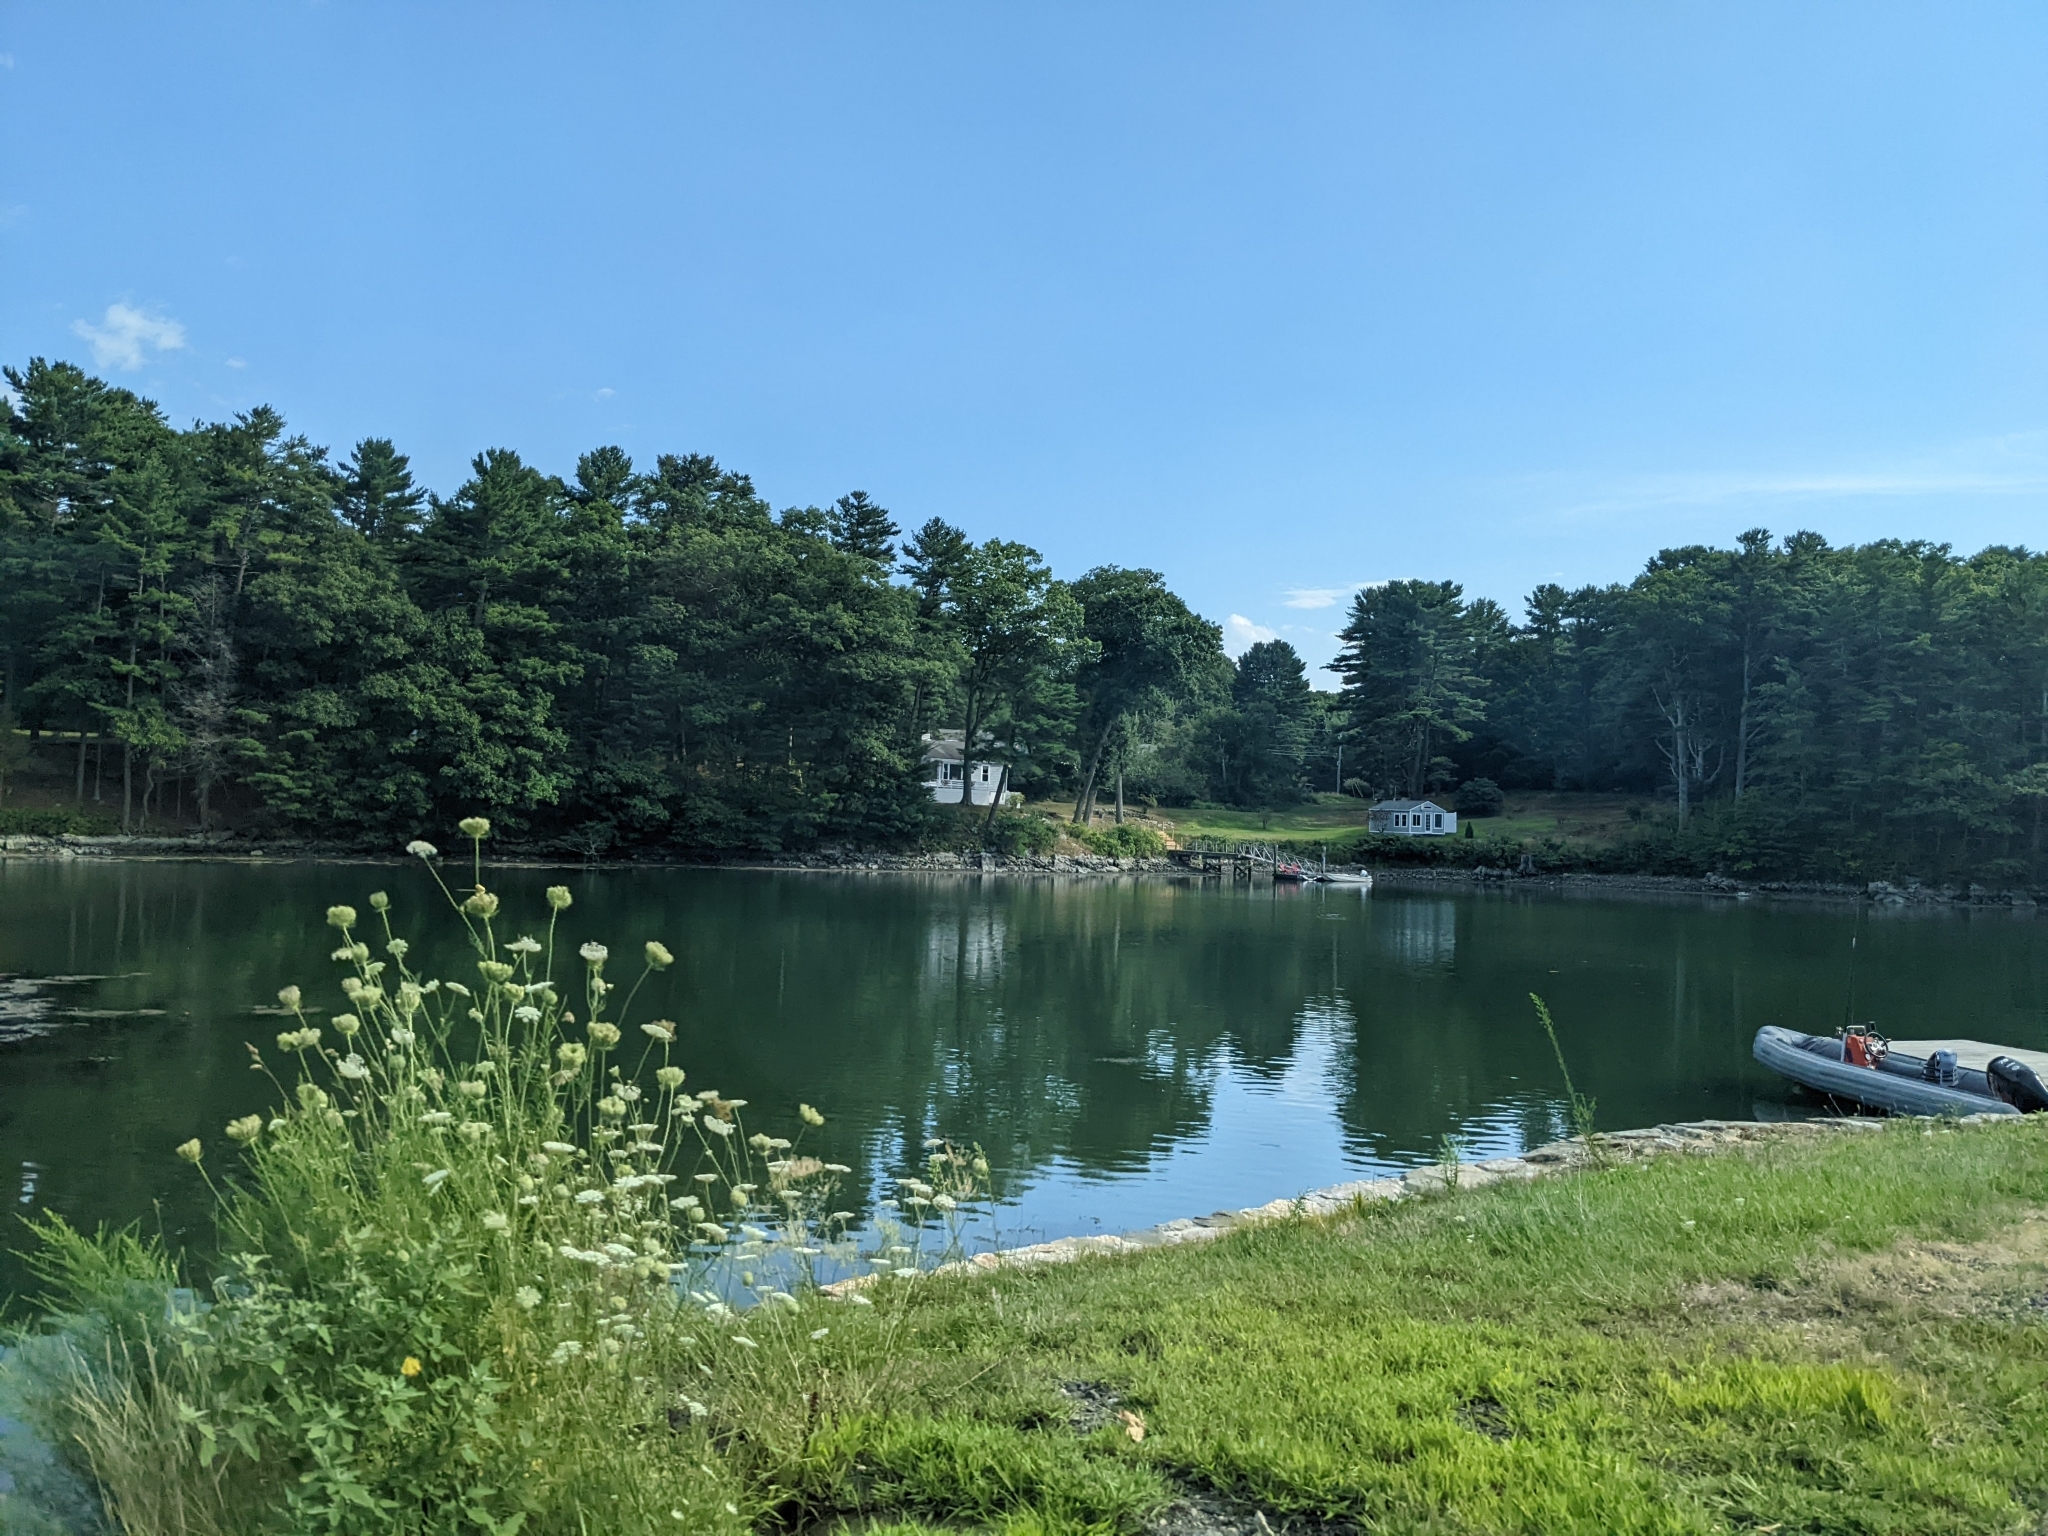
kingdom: Plantae
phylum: Tracheophyta
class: Pinopsida
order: Pinales
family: Pinaceae
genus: Pinus
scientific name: Pinus strobus
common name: Weymouth pine
